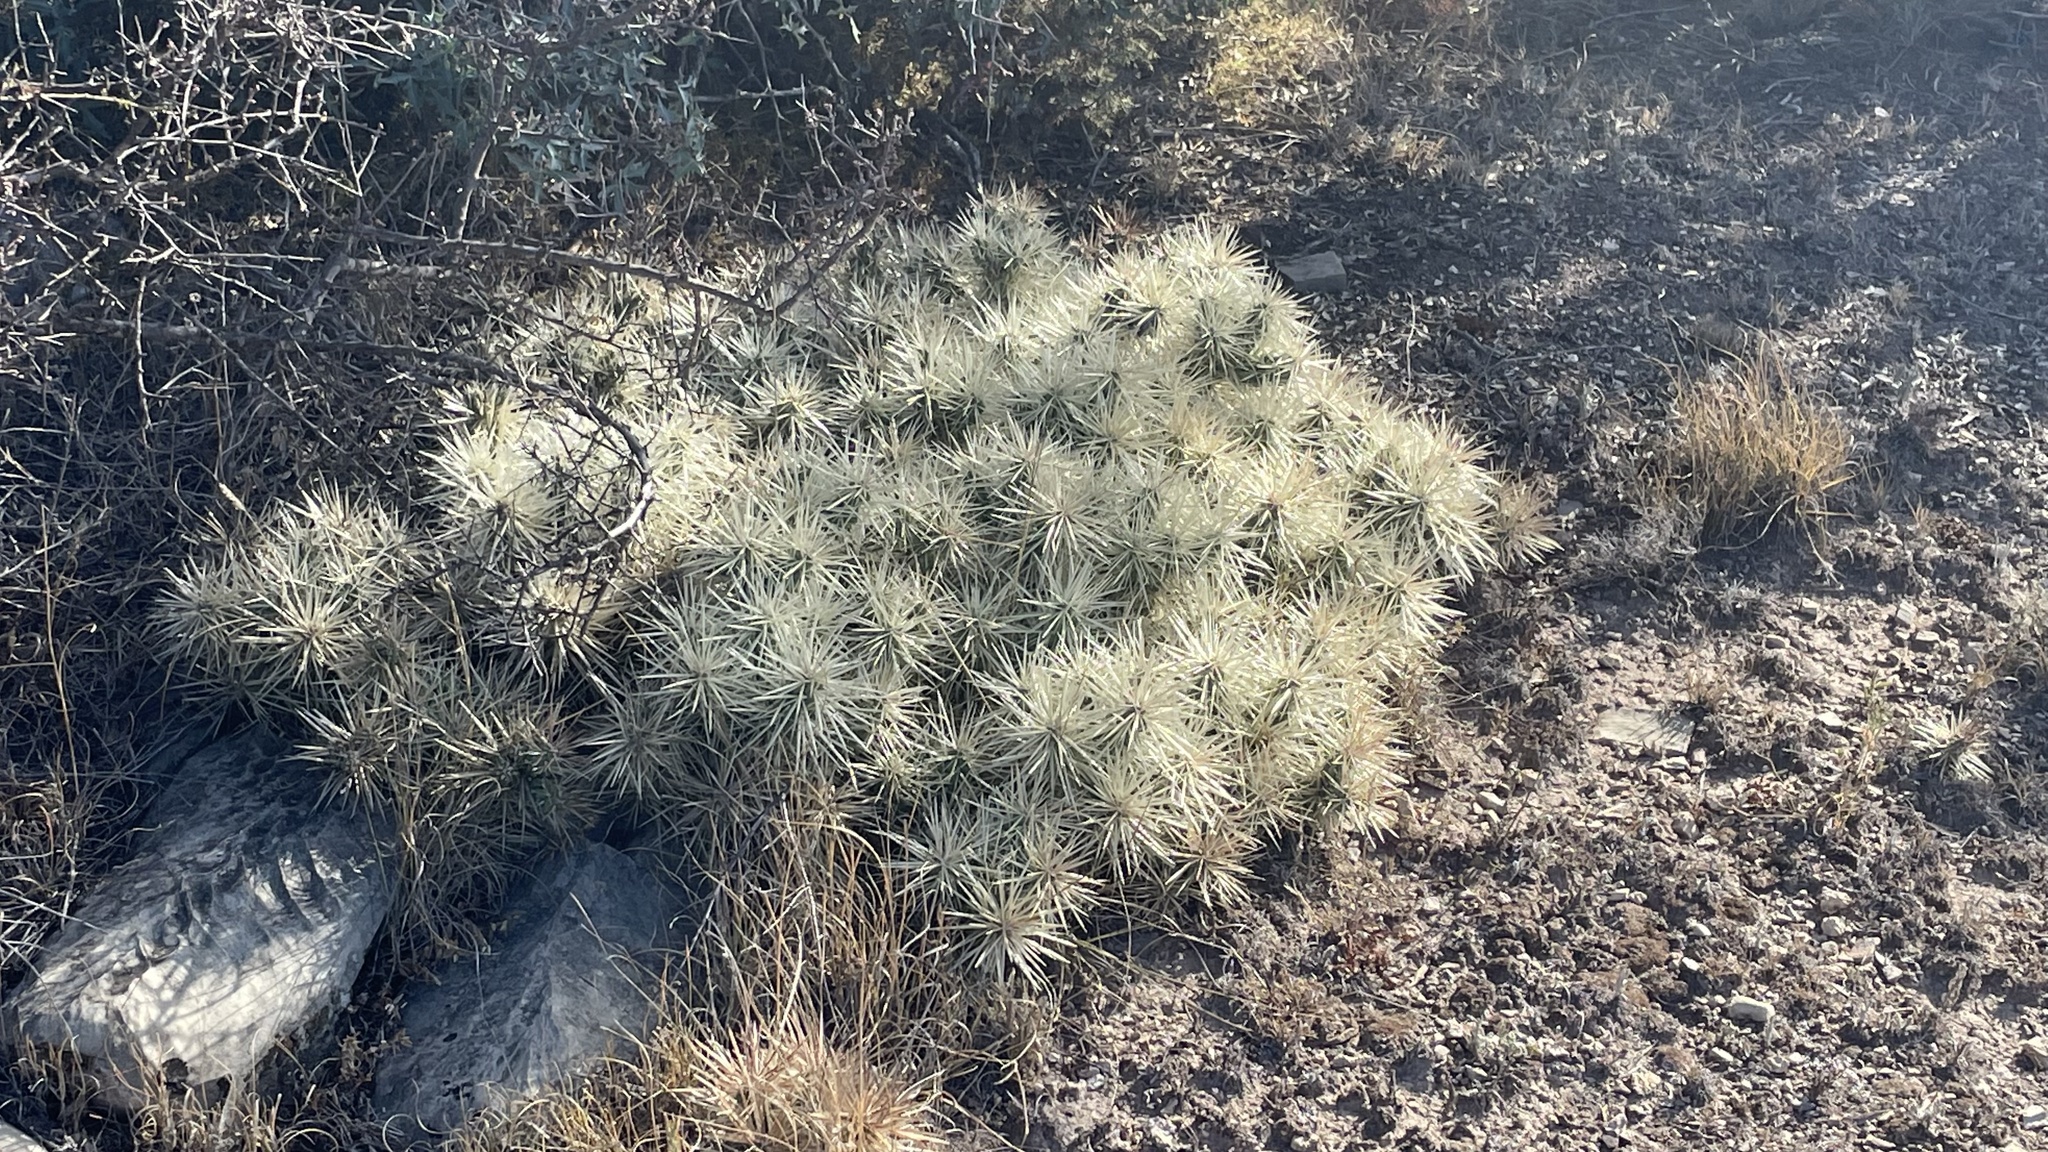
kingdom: Plantae
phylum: Tracheophyta
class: Magnoliopsida
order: Caryophyllales
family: Cactaceae
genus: Cylindropuntia
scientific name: Cylindropuntia tunicata
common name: Sheathed cholla
